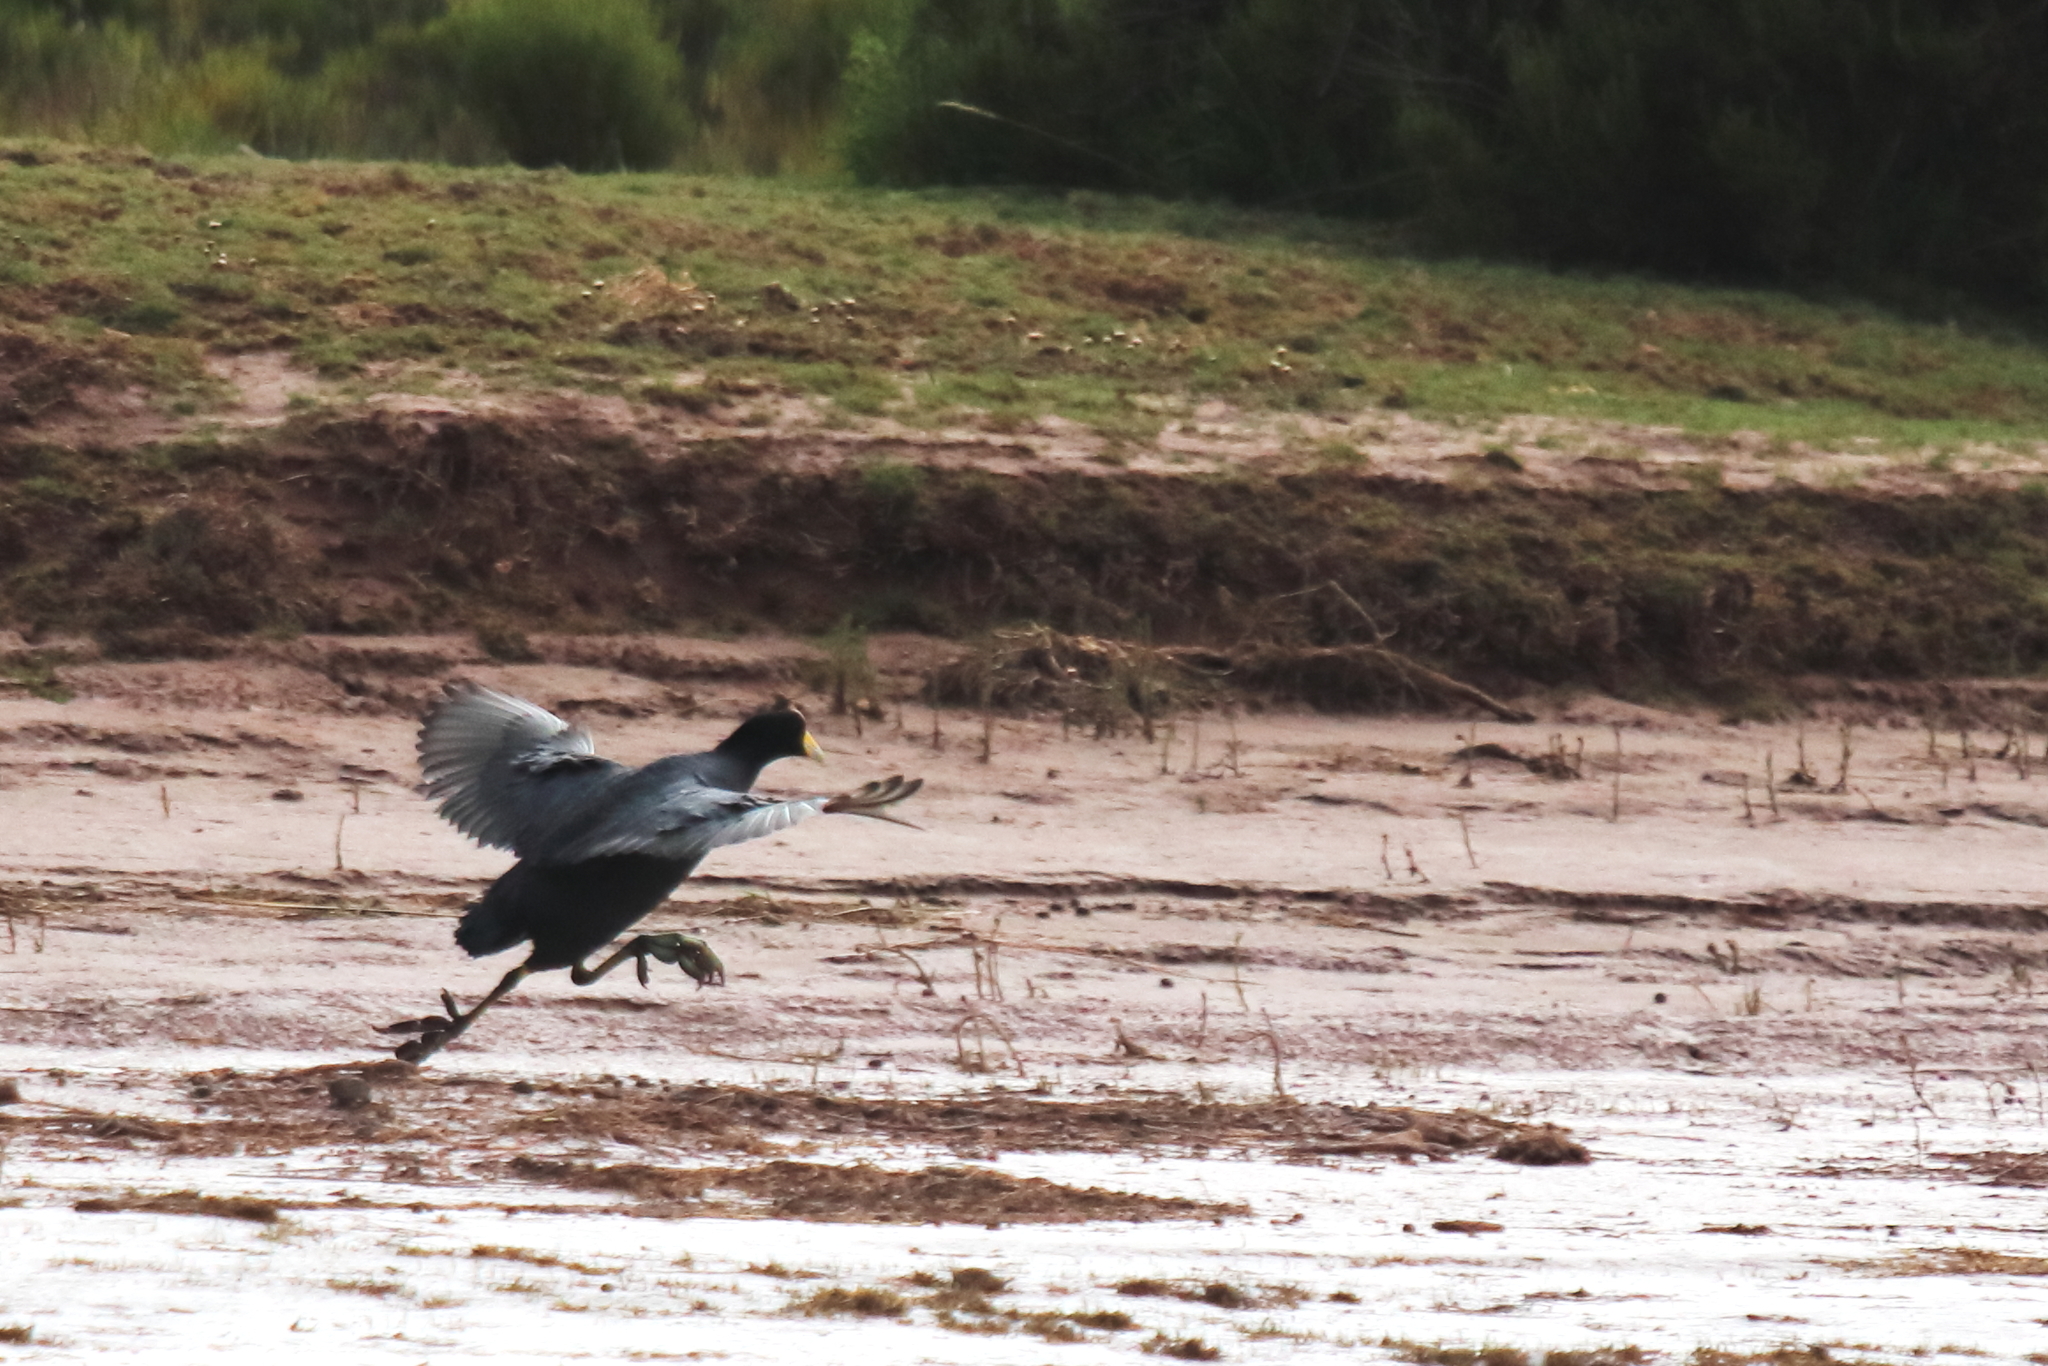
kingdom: Animalia
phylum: Chordata
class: Aves
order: Gruiformes
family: Rallidae
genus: Fulica
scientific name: Fulica ardesiaca
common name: Andean coot
